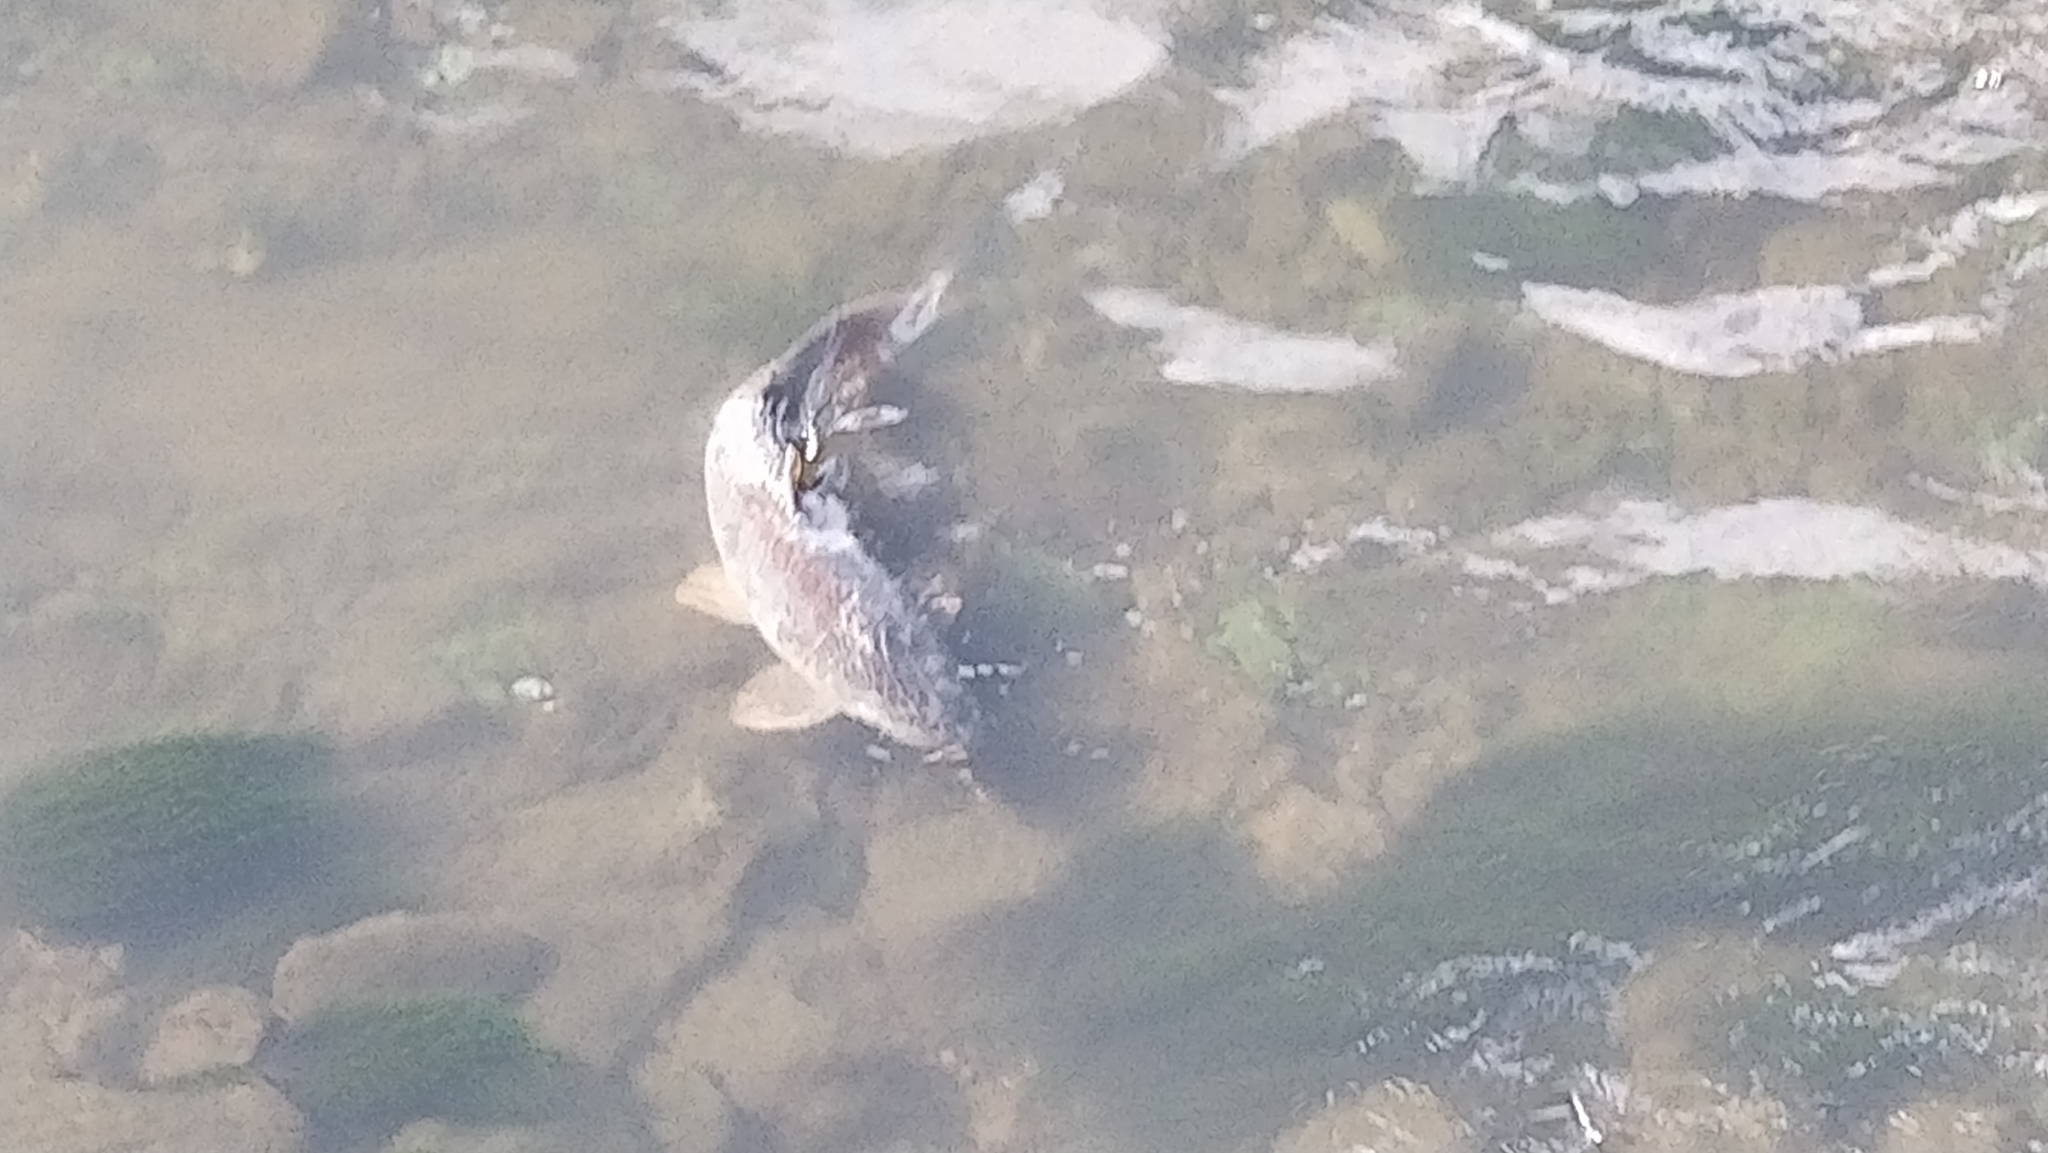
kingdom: Animalia
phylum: Chordata
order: Cypriniformes
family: Cyprinidae
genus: Cyprinus
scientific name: Cyprinus carpio
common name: Common carp
